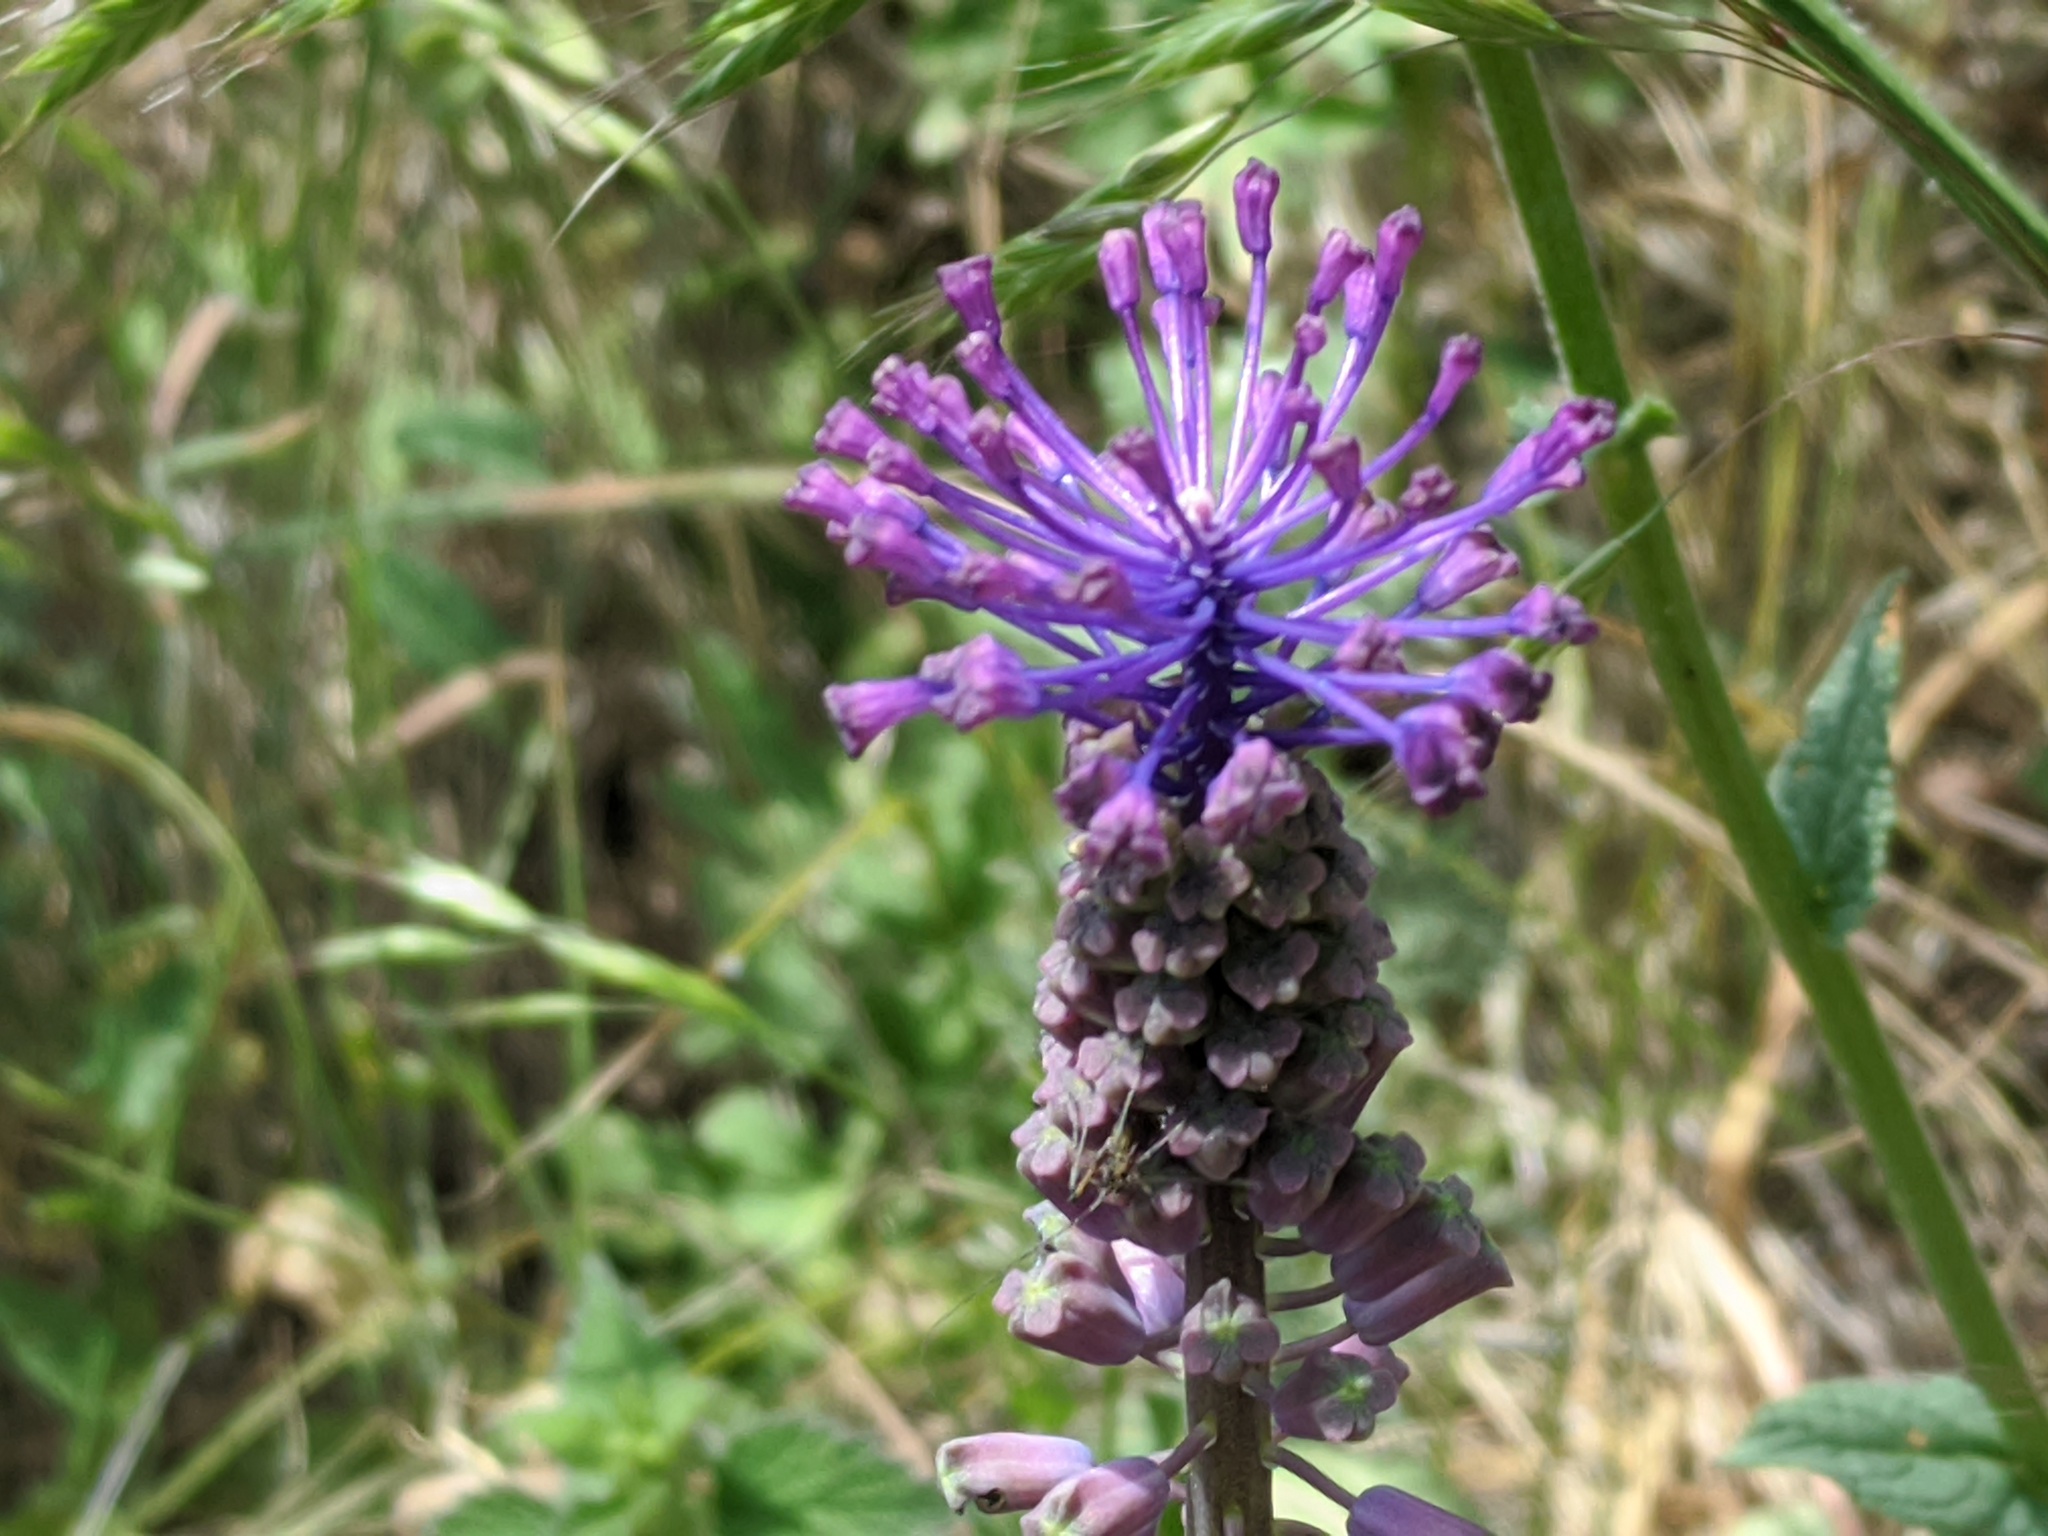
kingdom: Plantae
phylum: Tracheophyta
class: Liliopsida
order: Asparagales
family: Asparagaceae
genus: Muscari
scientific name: Muscari comosum
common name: Tassel hyacinth
